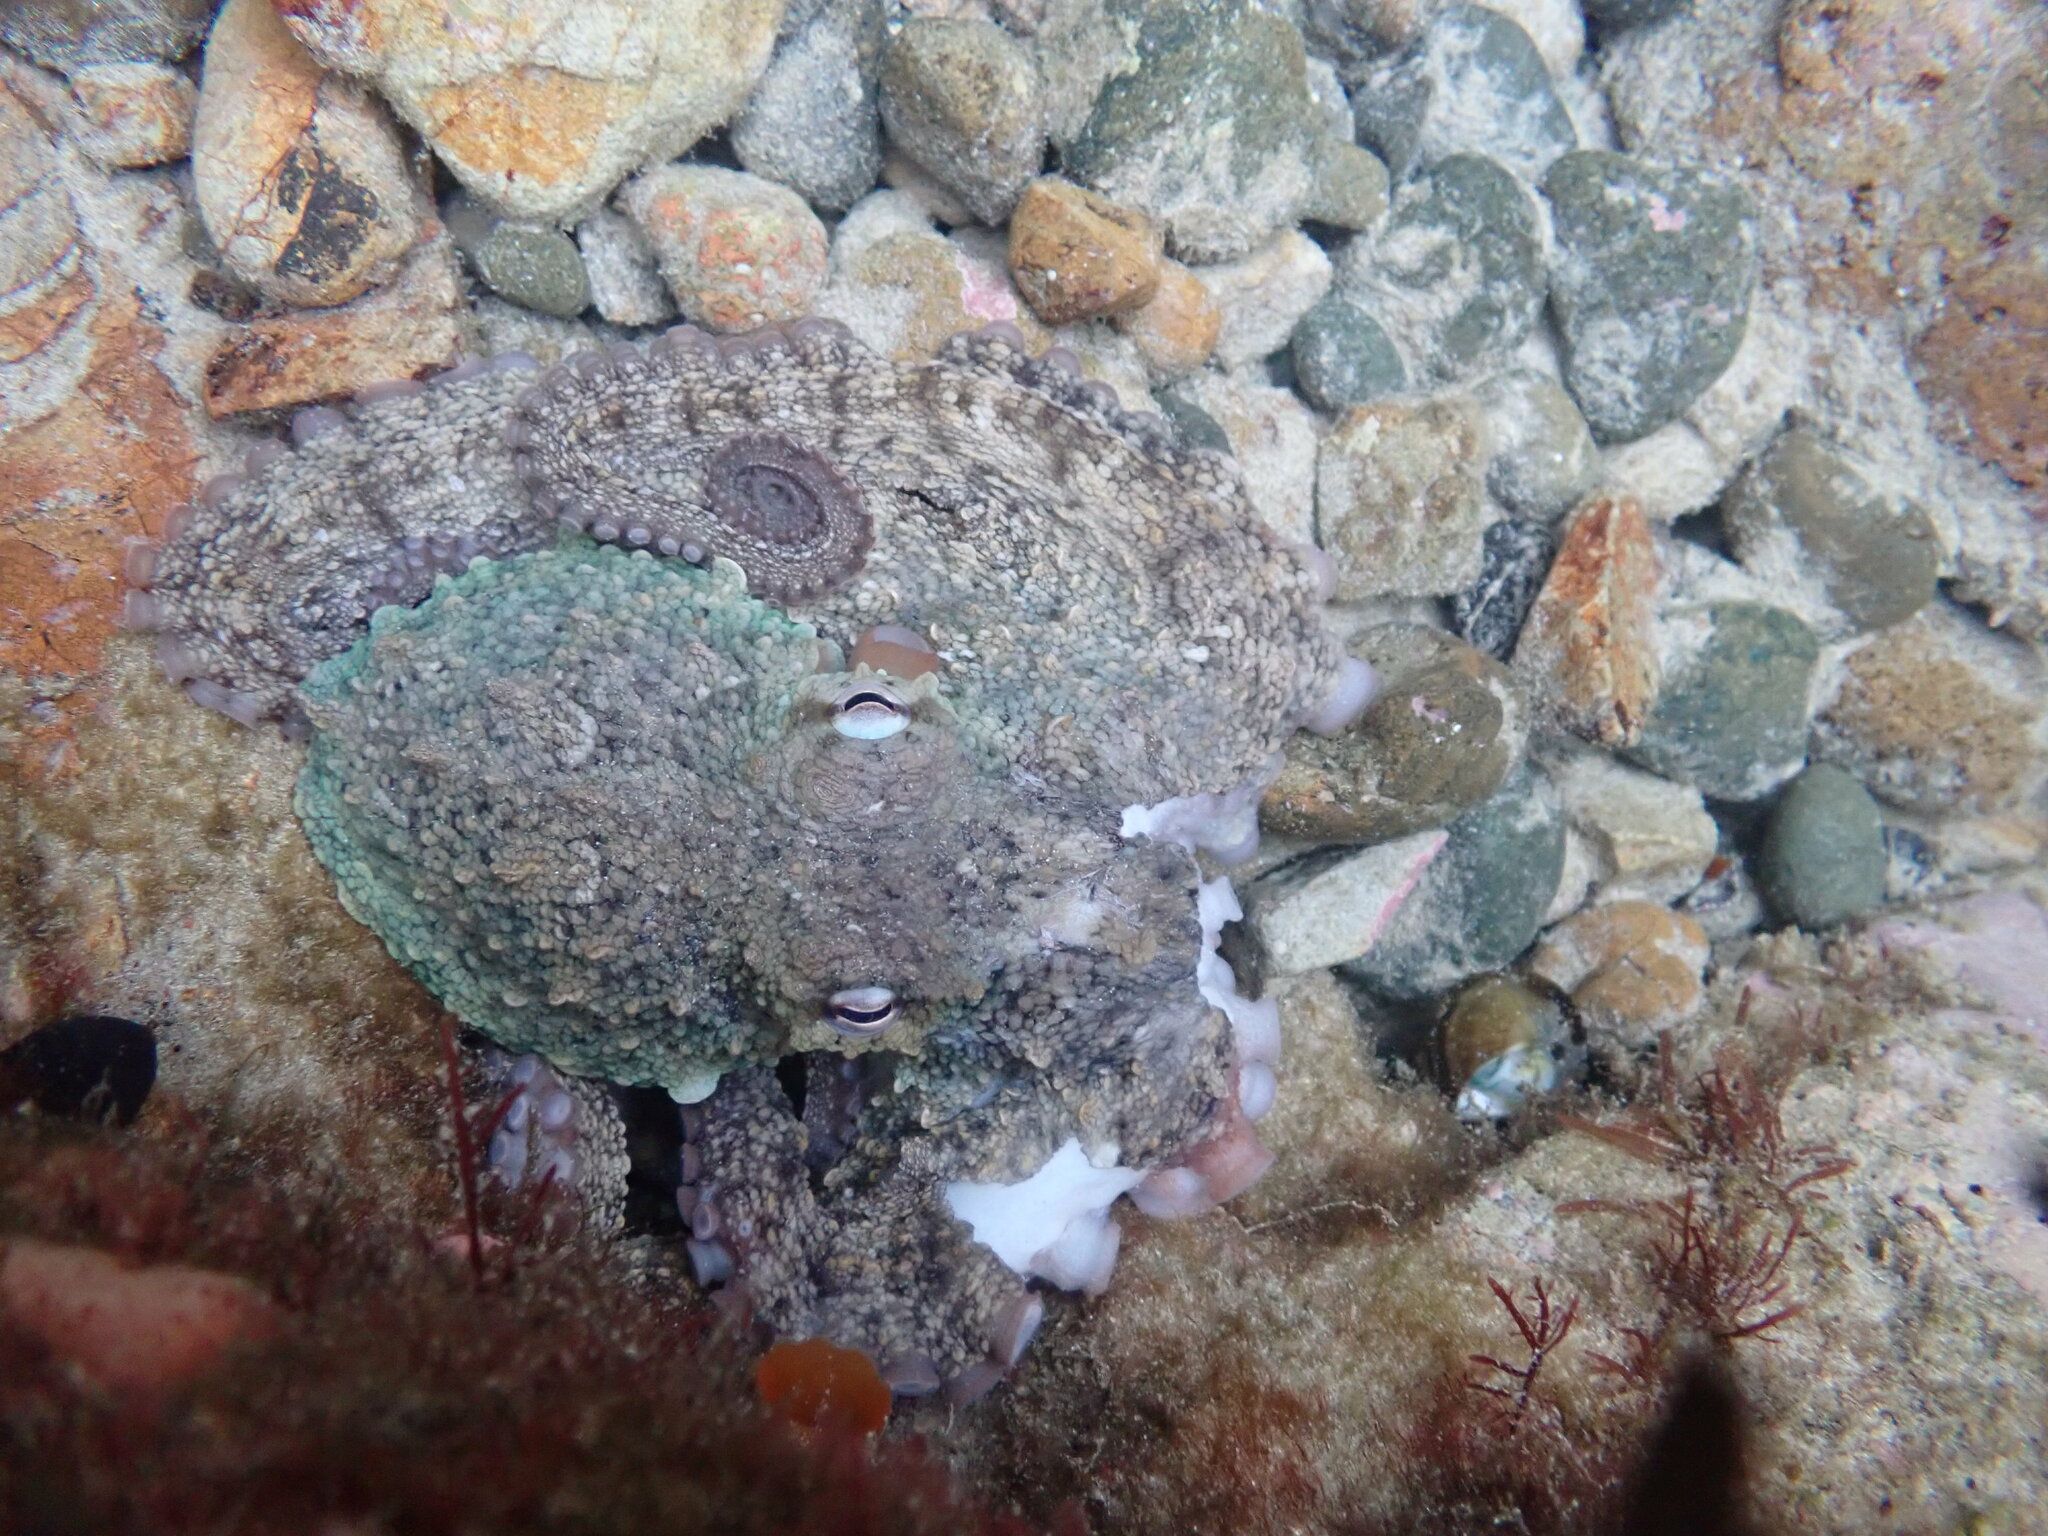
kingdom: Animalia
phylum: Mollusca
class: Cephalopoda
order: Octopoda
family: Octopodidae
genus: Octopus
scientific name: Octopus tetricus
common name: Sydney octopus
